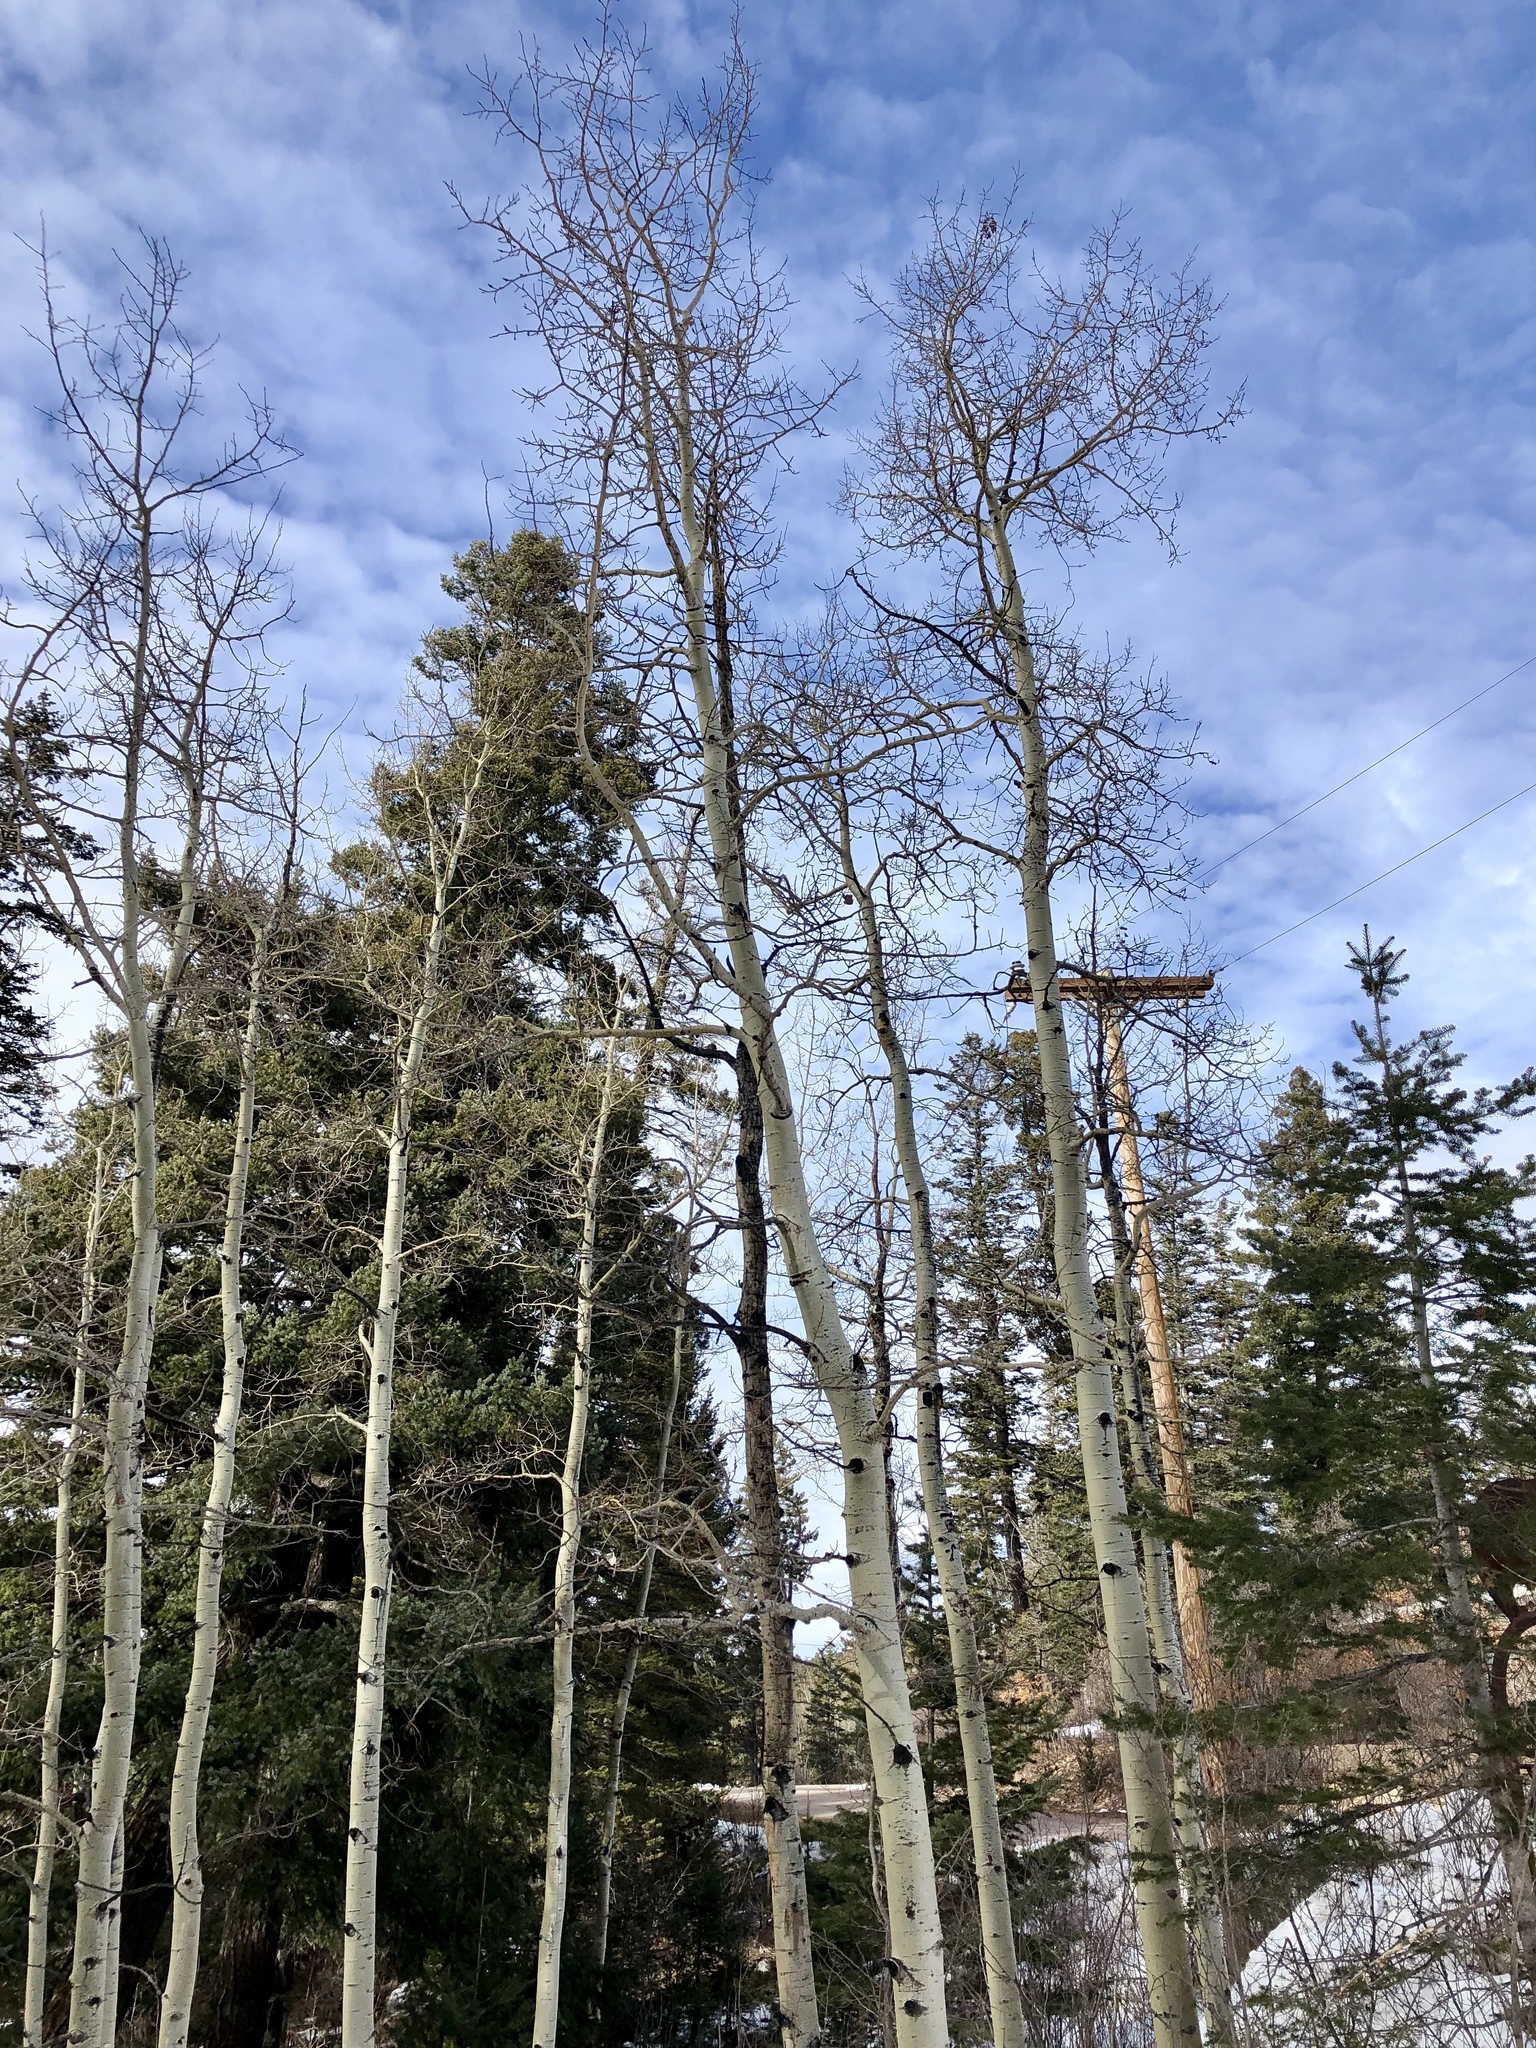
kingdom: Plantae
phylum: Tracheophyta
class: Magnoliopsida
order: Malpighiales
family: Salicaceae
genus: Populus
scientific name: Populus tremuloides
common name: Quaking aspen
